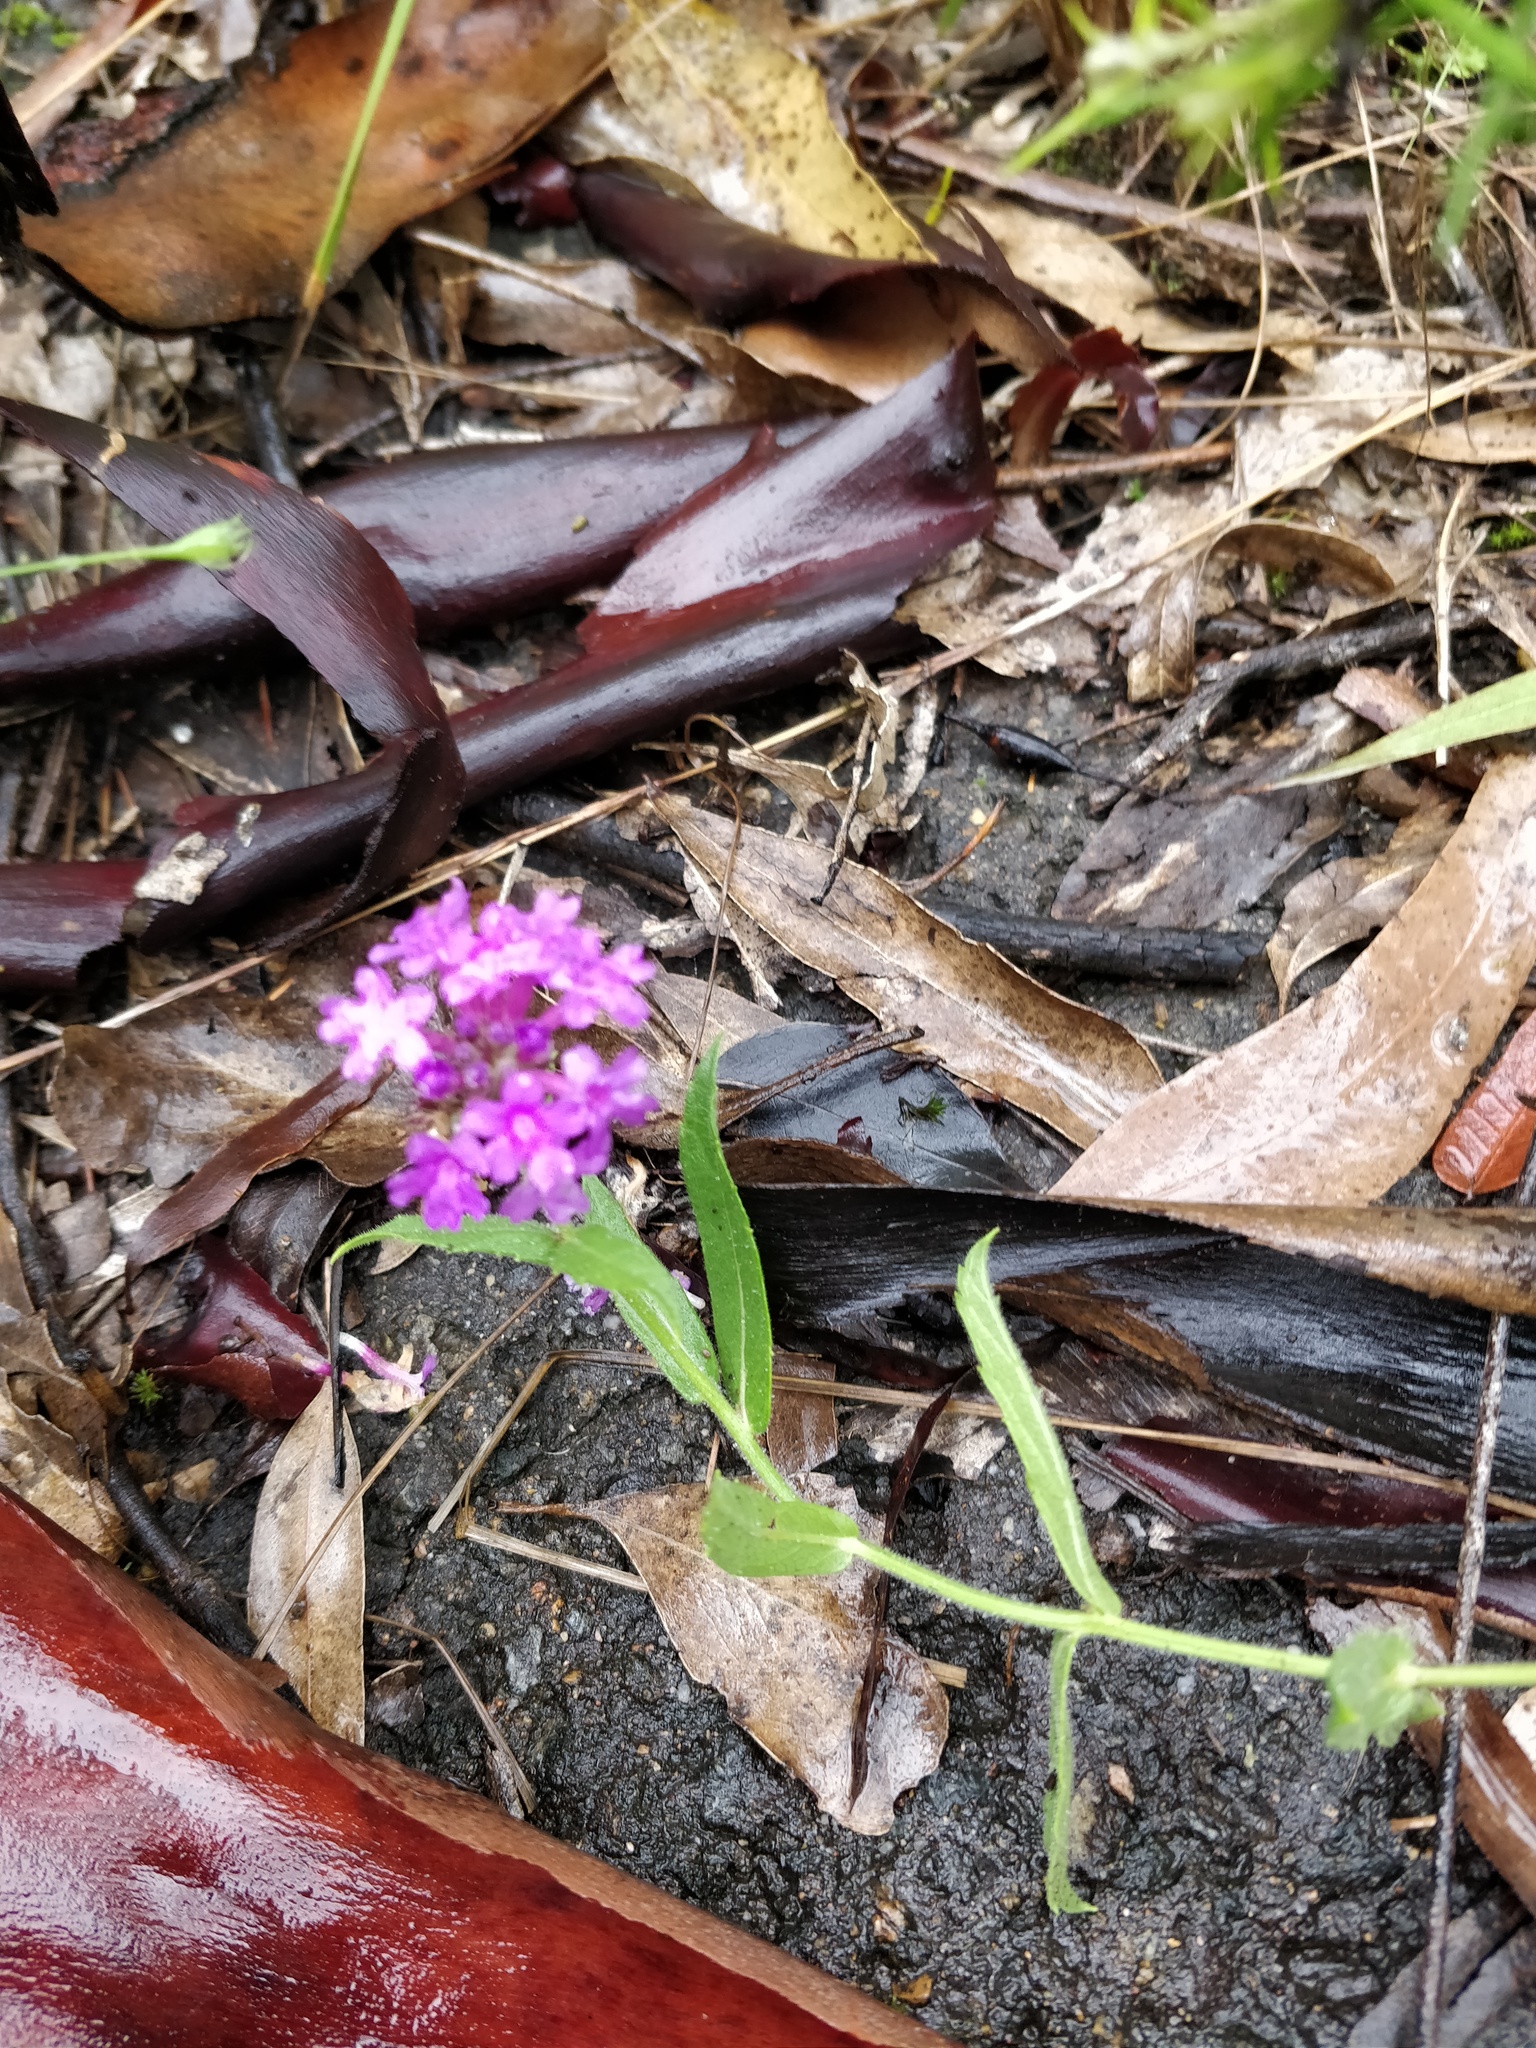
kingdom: Plantae
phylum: Tracheophyta
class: Magnoliopsida
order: Lamiales
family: Verbenaceae
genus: Verbena
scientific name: Verbena rigida
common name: Slender vervain
